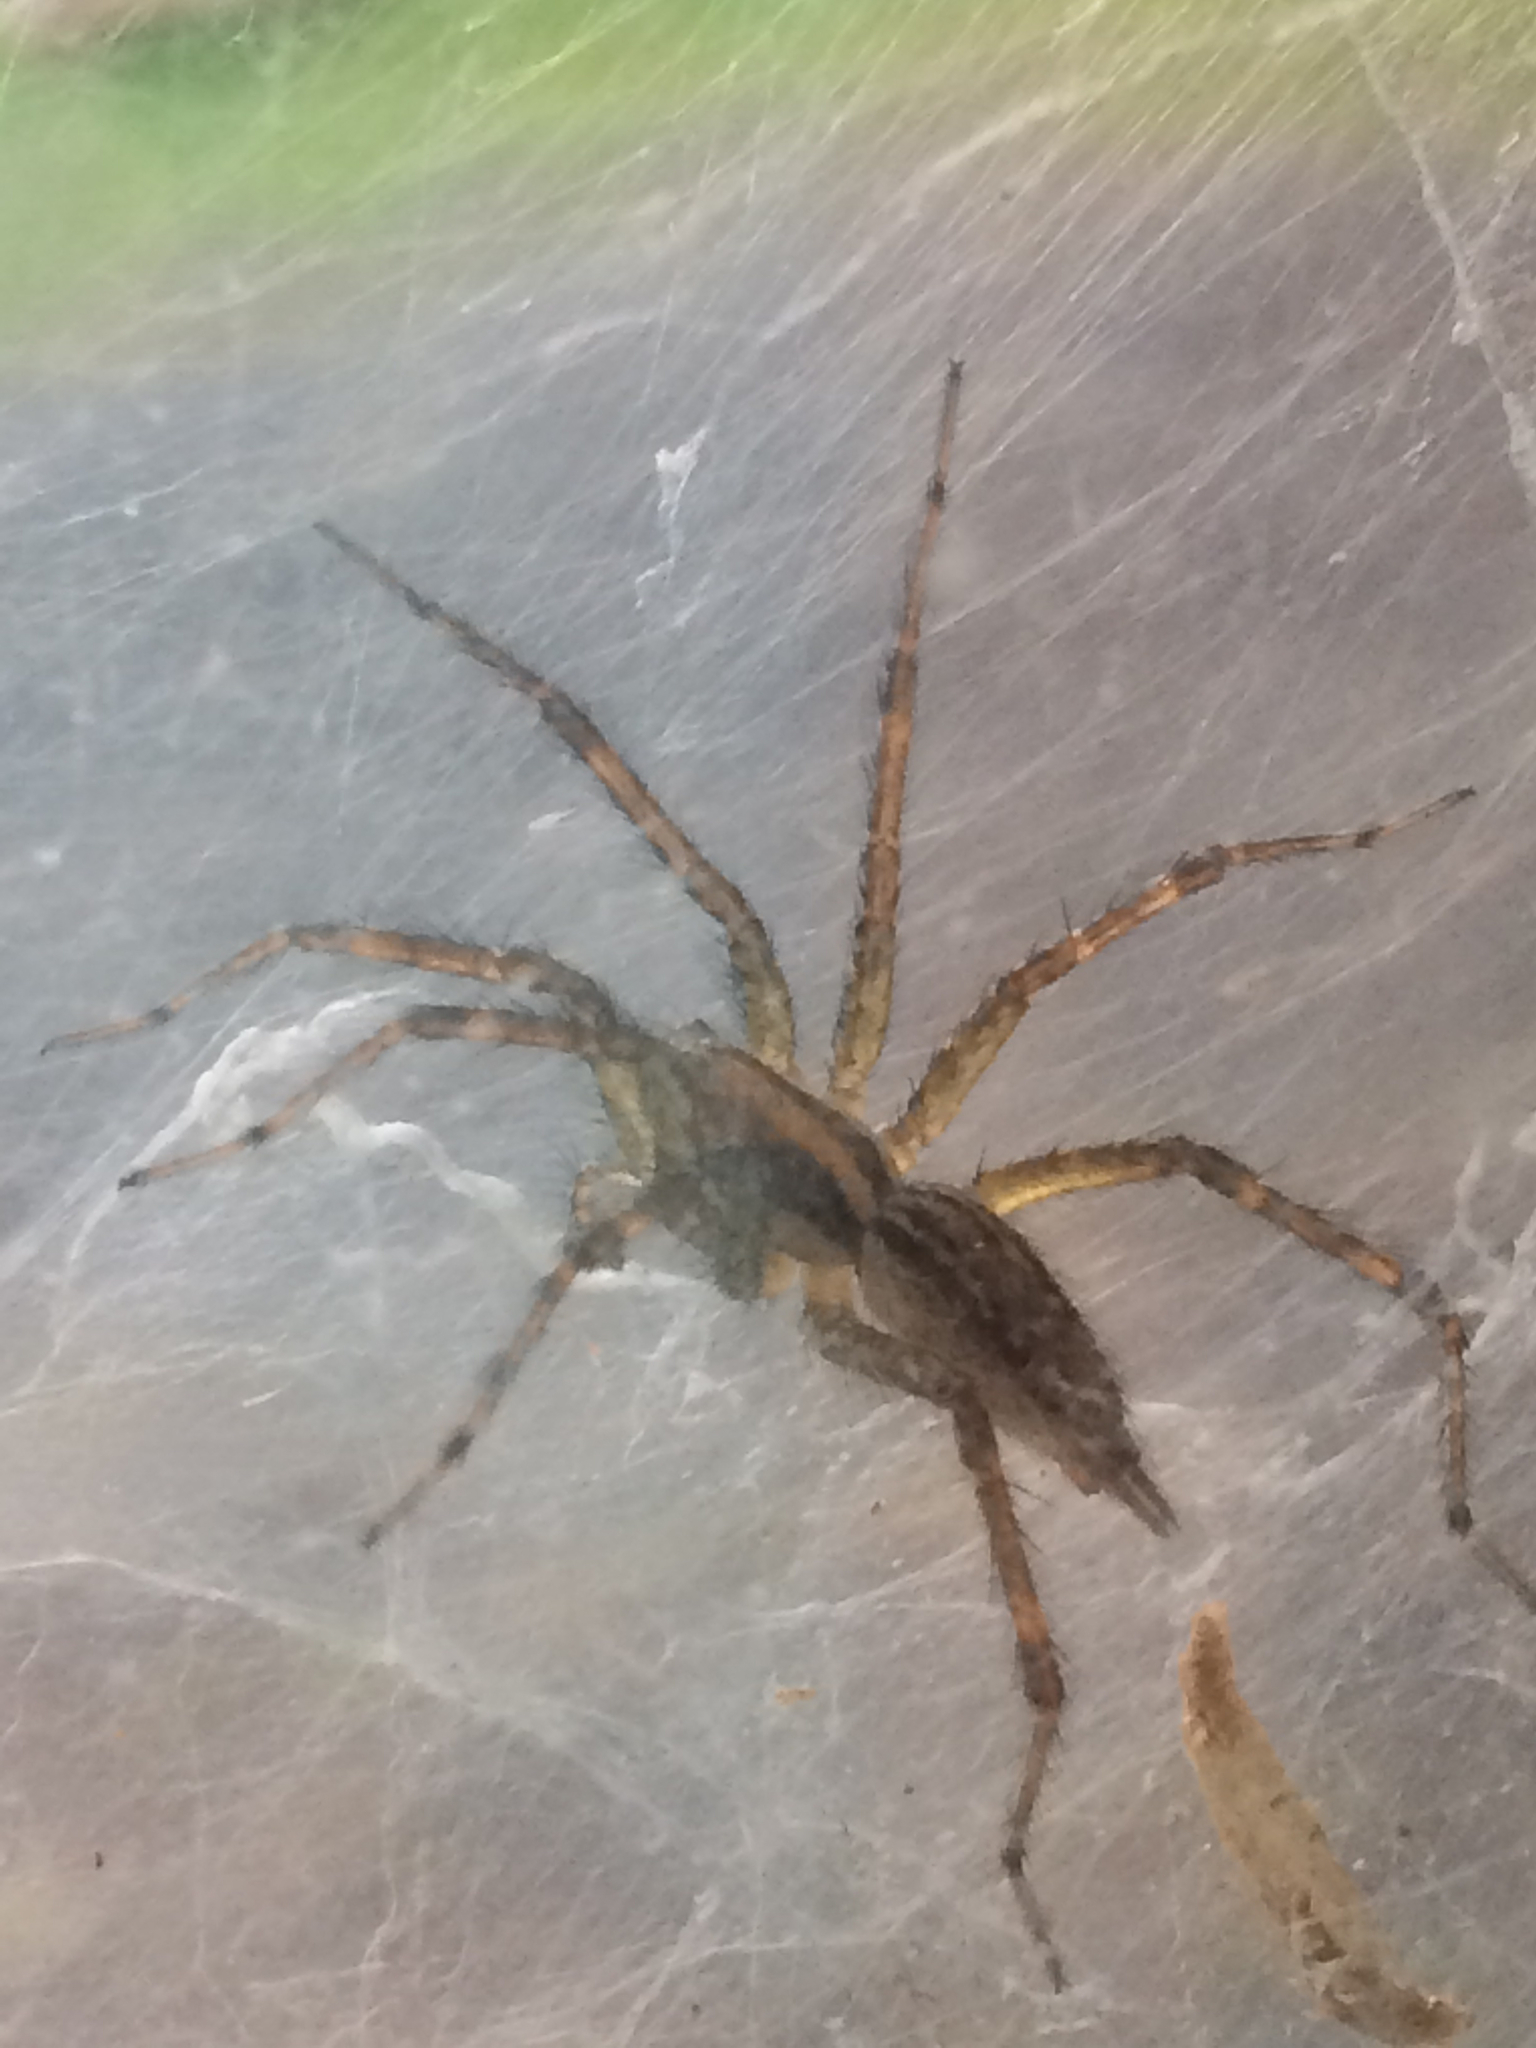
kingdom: Animalia
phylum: Arthropoda
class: Arachnida
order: Araneae
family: Agelenidae
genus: Agelenopsis
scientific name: Agelenopsis
